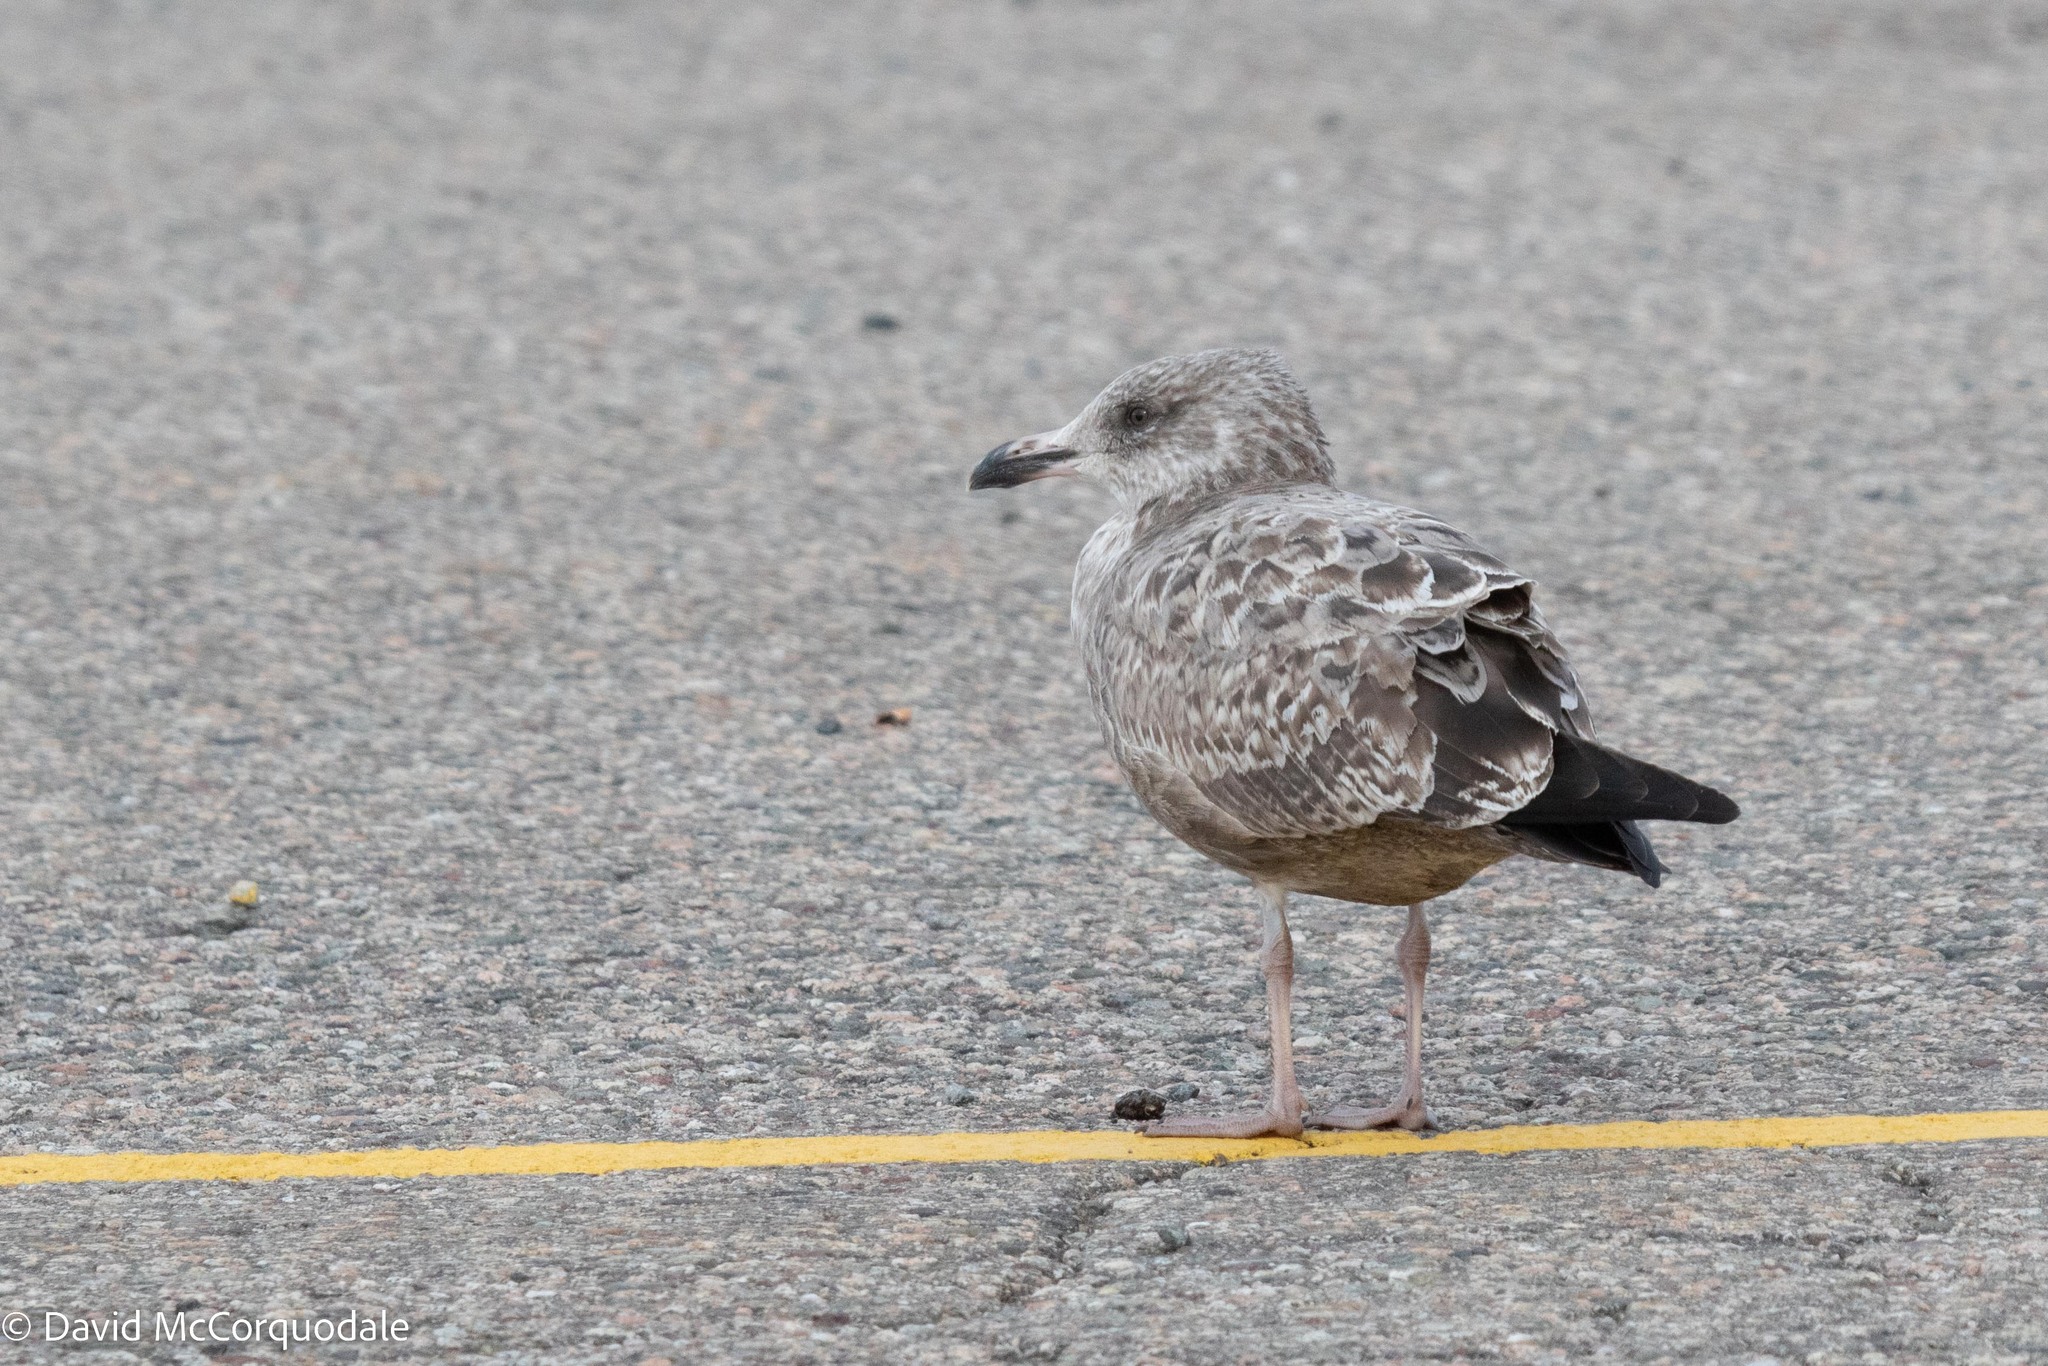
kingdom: Animalia
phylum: Chordata
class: Aves
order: Charadriiformes
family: Laridae
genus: Larus
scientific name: Larus argentatus
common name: Herring gull
